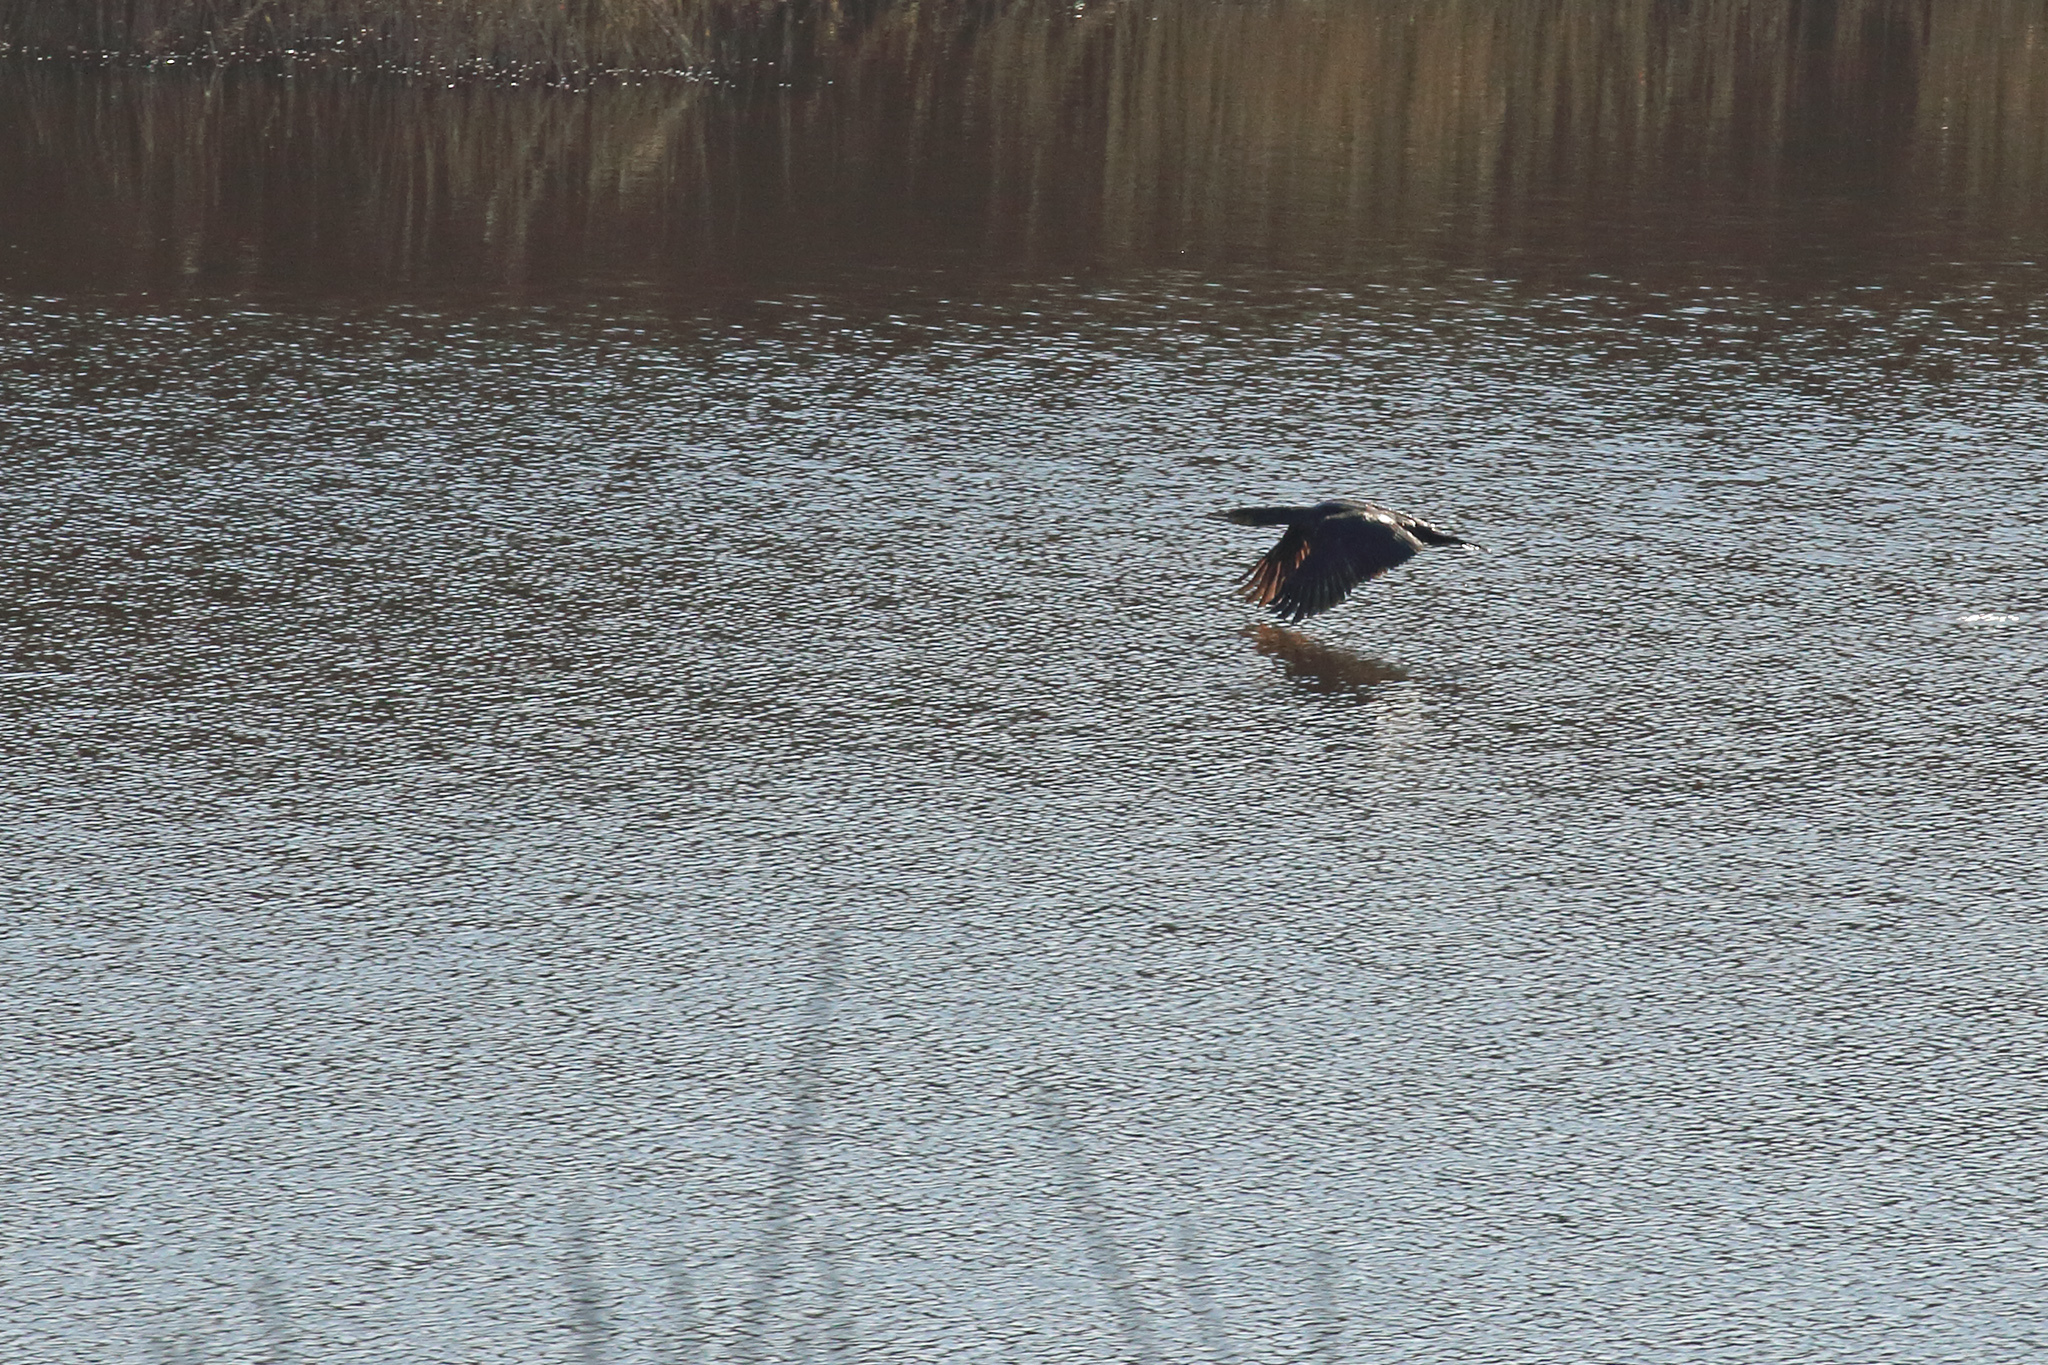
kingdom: Animalia
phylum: Chordata
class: Aves
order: Suliformes
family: Phalacrocoracidae
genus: Phalacrocorax
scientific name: Phalacrocorax carbo
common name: Great cormorant
